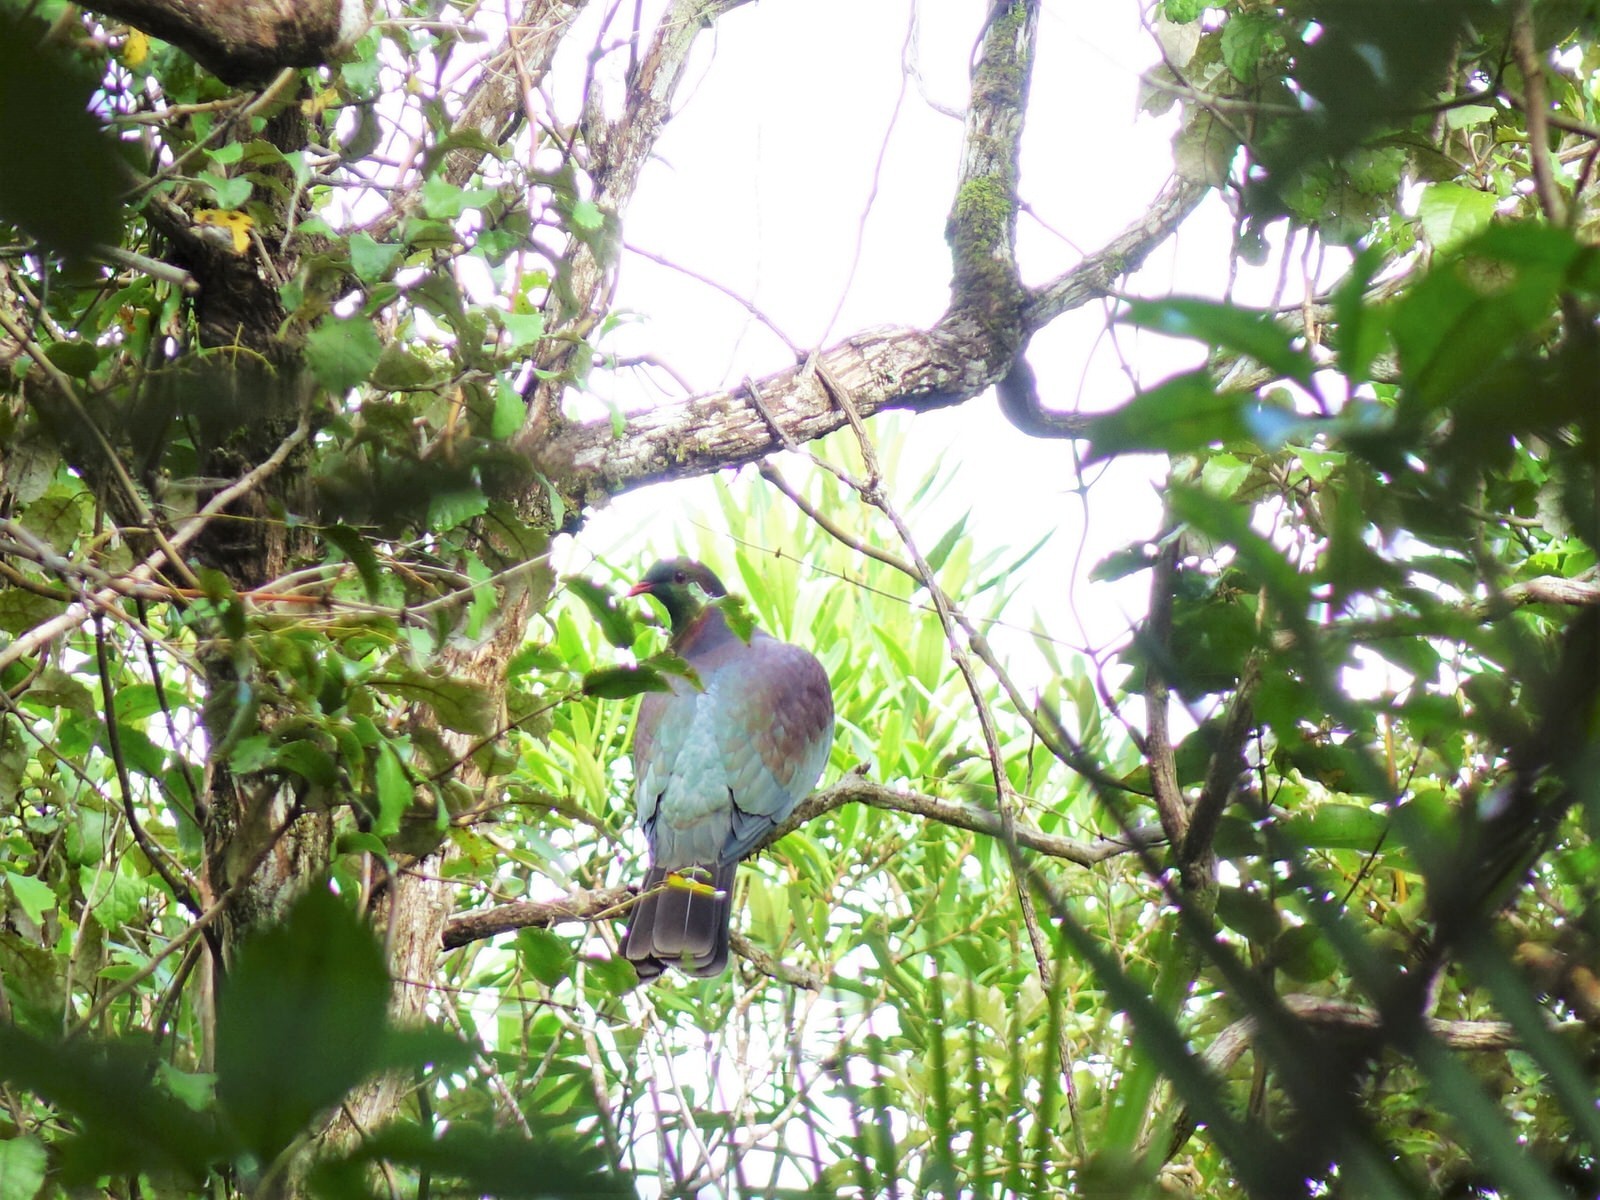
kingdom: Animalia
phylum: Chordata
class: Aves
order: Columbiformes
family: Columbidae
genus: Hemiphaga
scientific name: Hemiphaga novaeseelandiae
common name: New zealand pigeon
